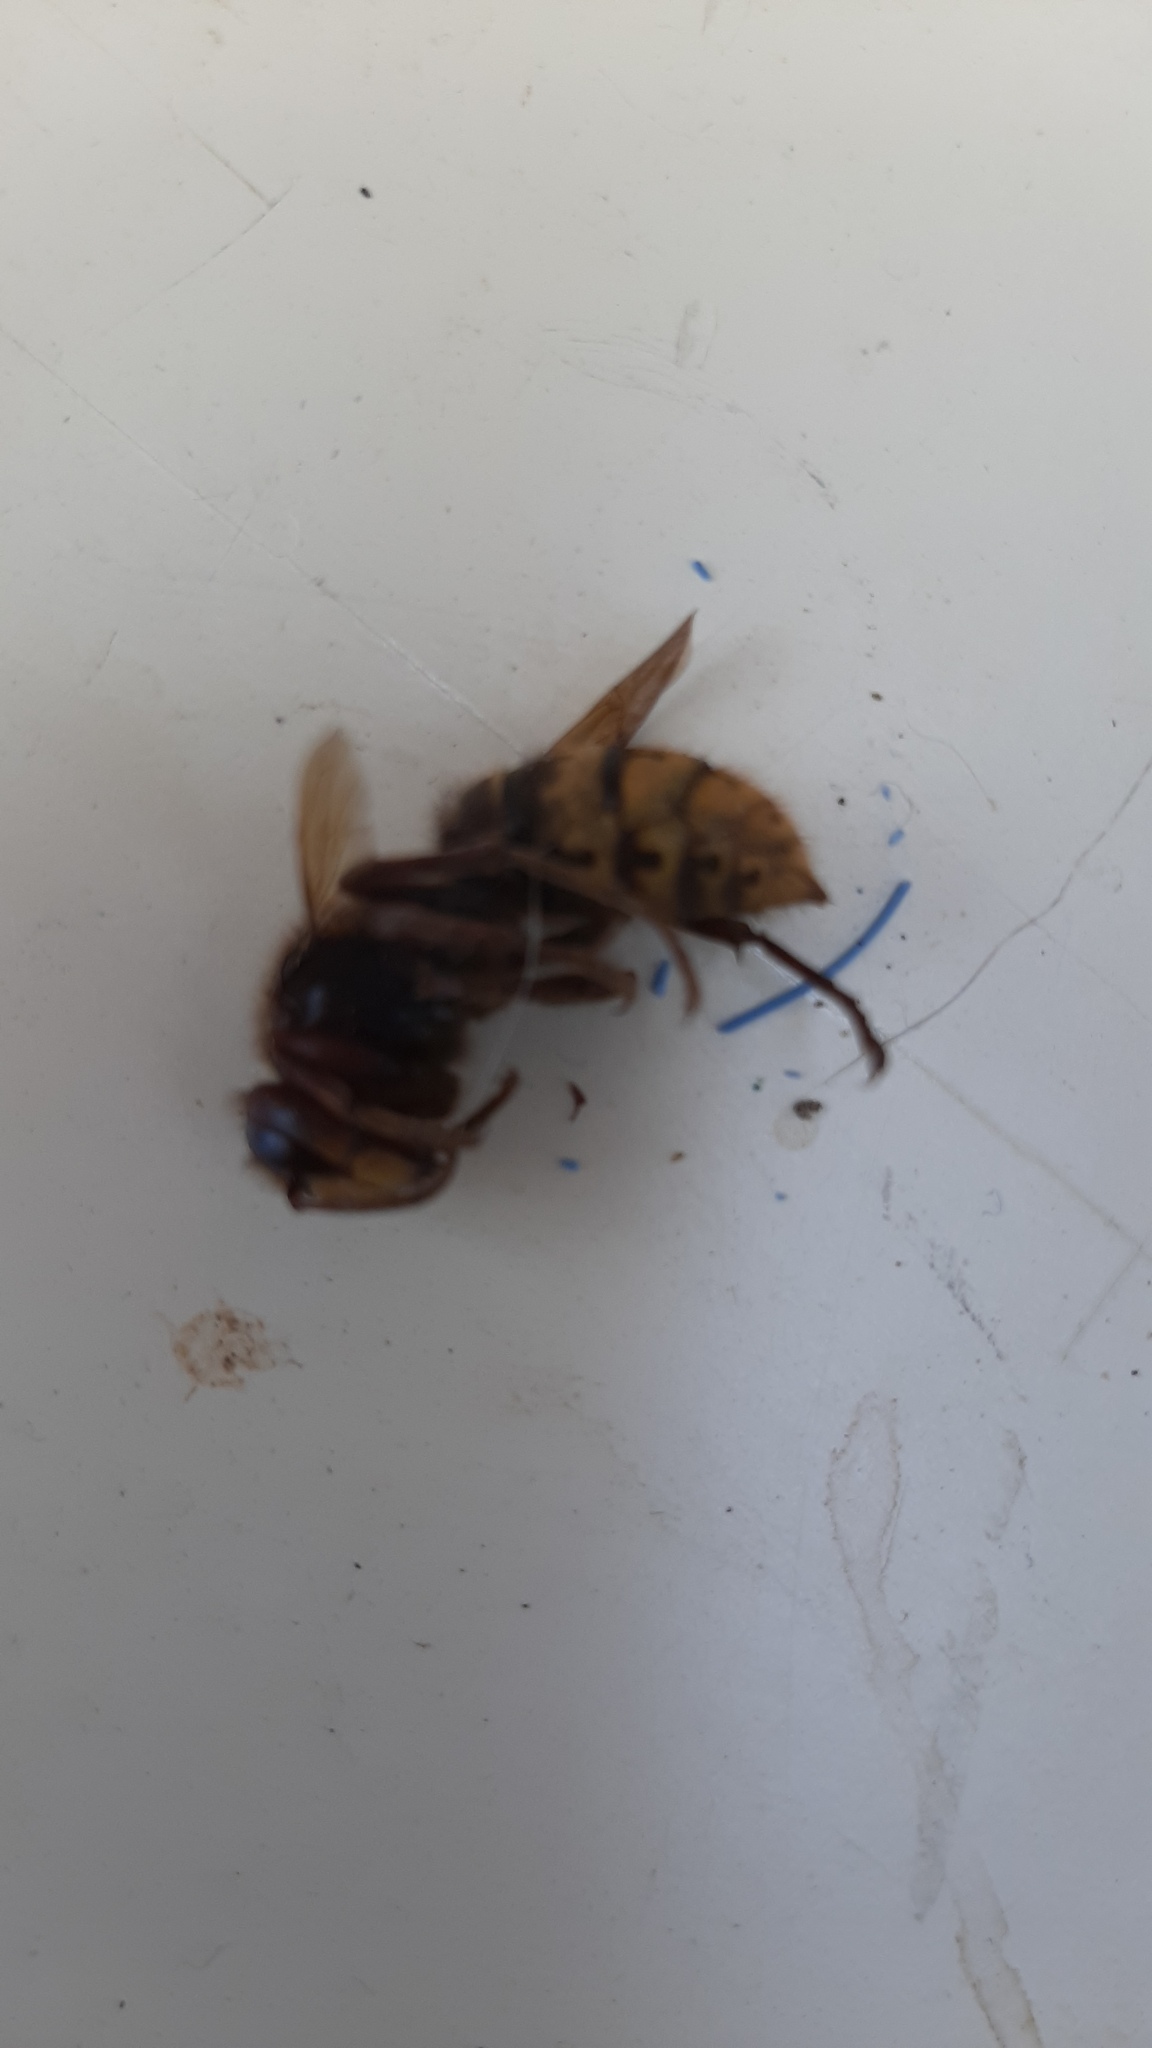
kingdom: Animalia
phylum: Arthropoda
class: Insecta
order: Hymenoptera
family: Vespidae
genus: Vespa
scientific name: Vespa crabro
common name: Hornet
